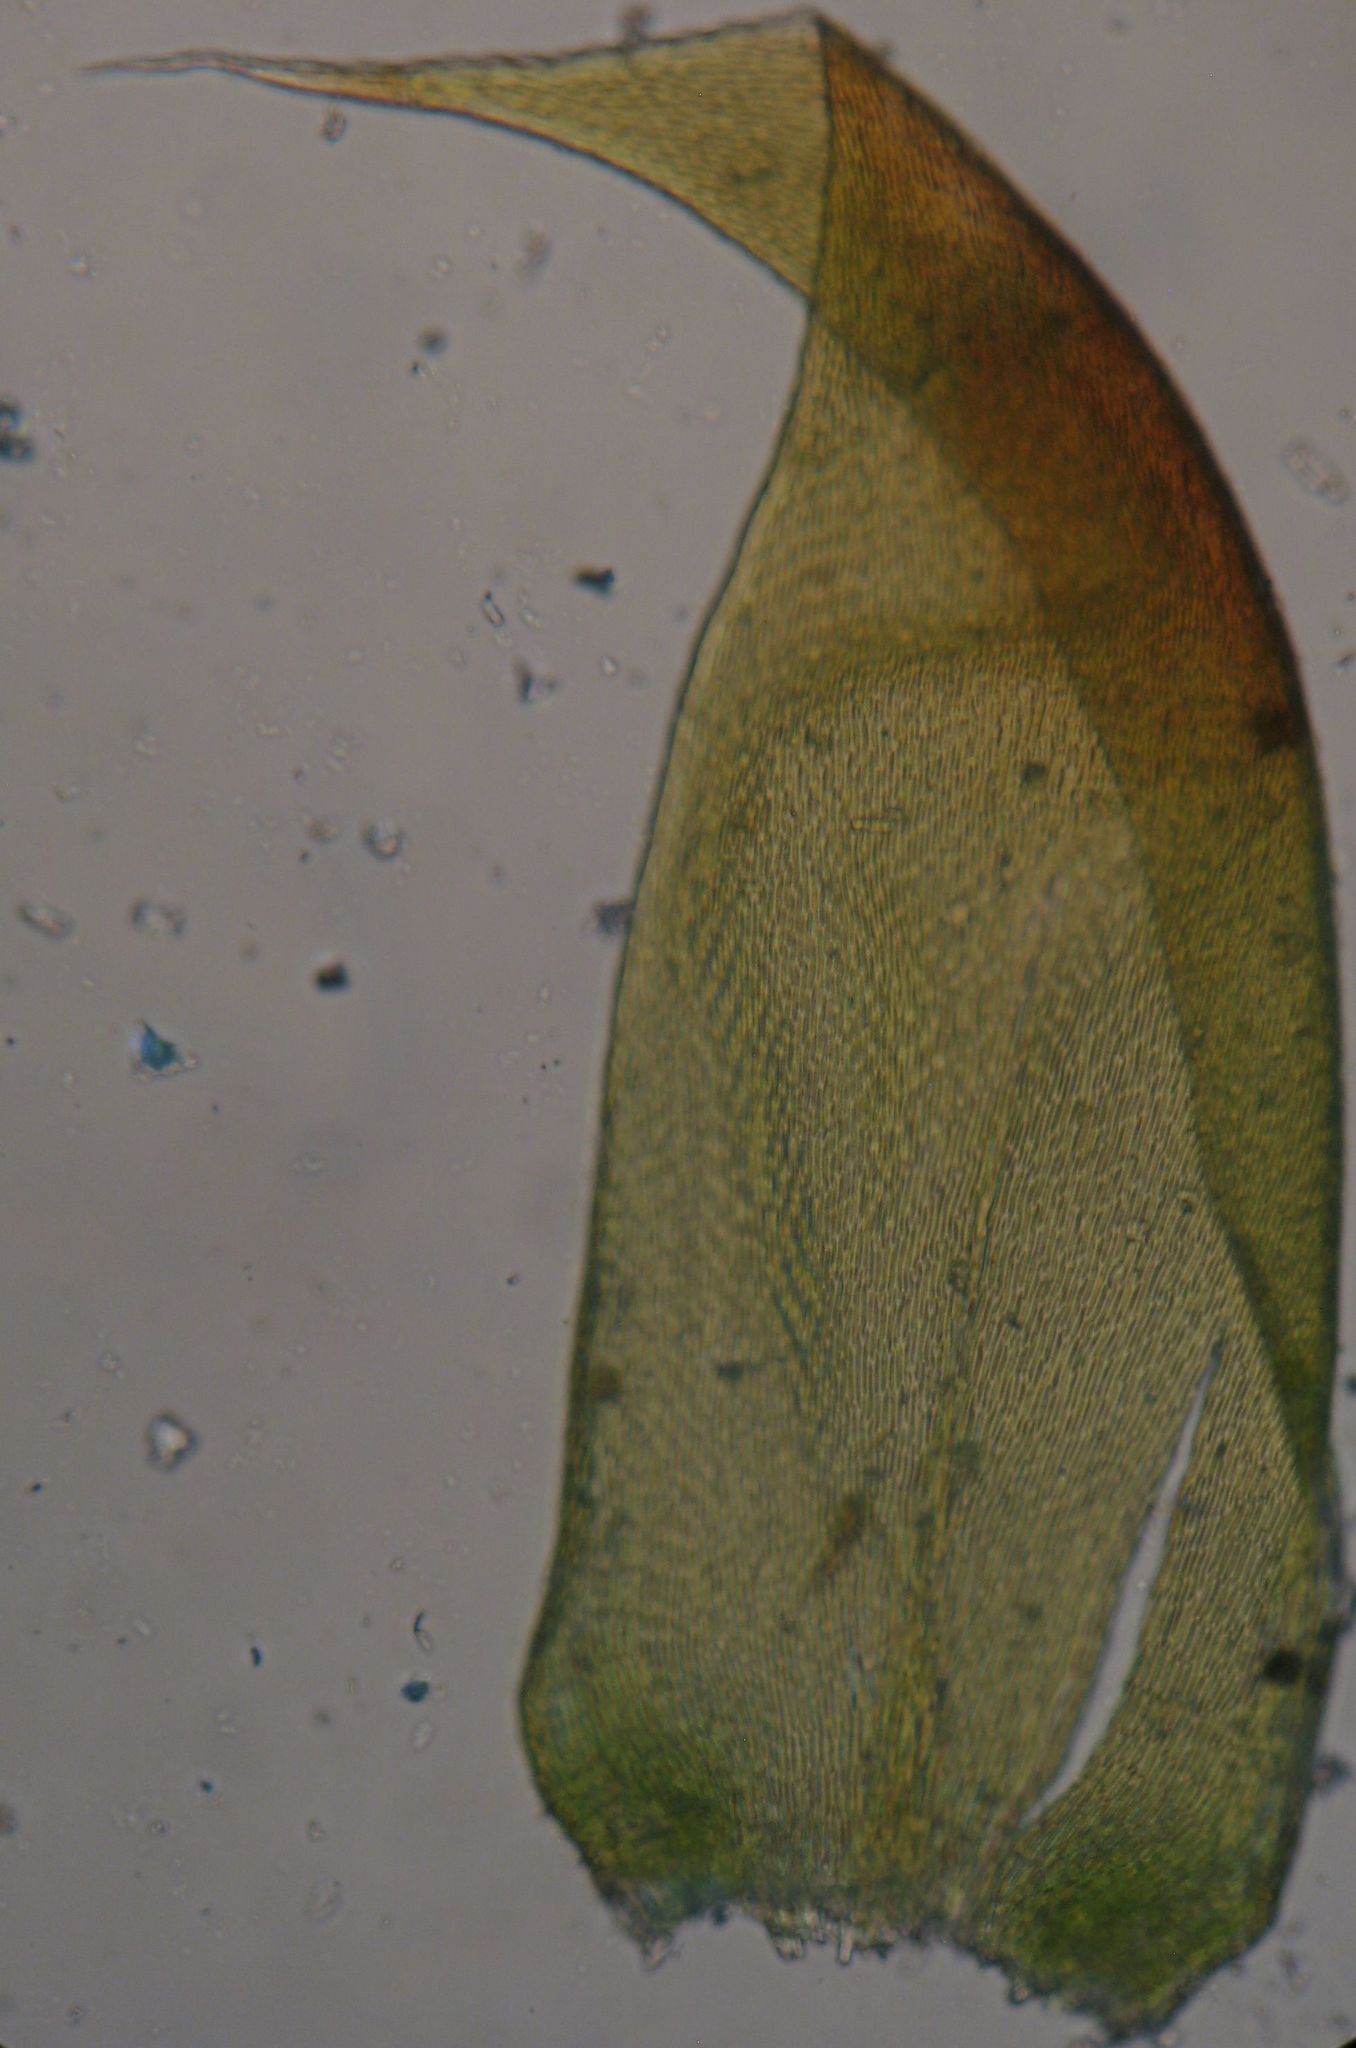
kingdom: Plantae
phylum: Bryophyta
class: Bryopsida
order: Hypnales
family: Hypnaceae
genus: Hypnum
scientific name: Hypnum cupressiforme
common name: Cypress-leaved plait-moss
